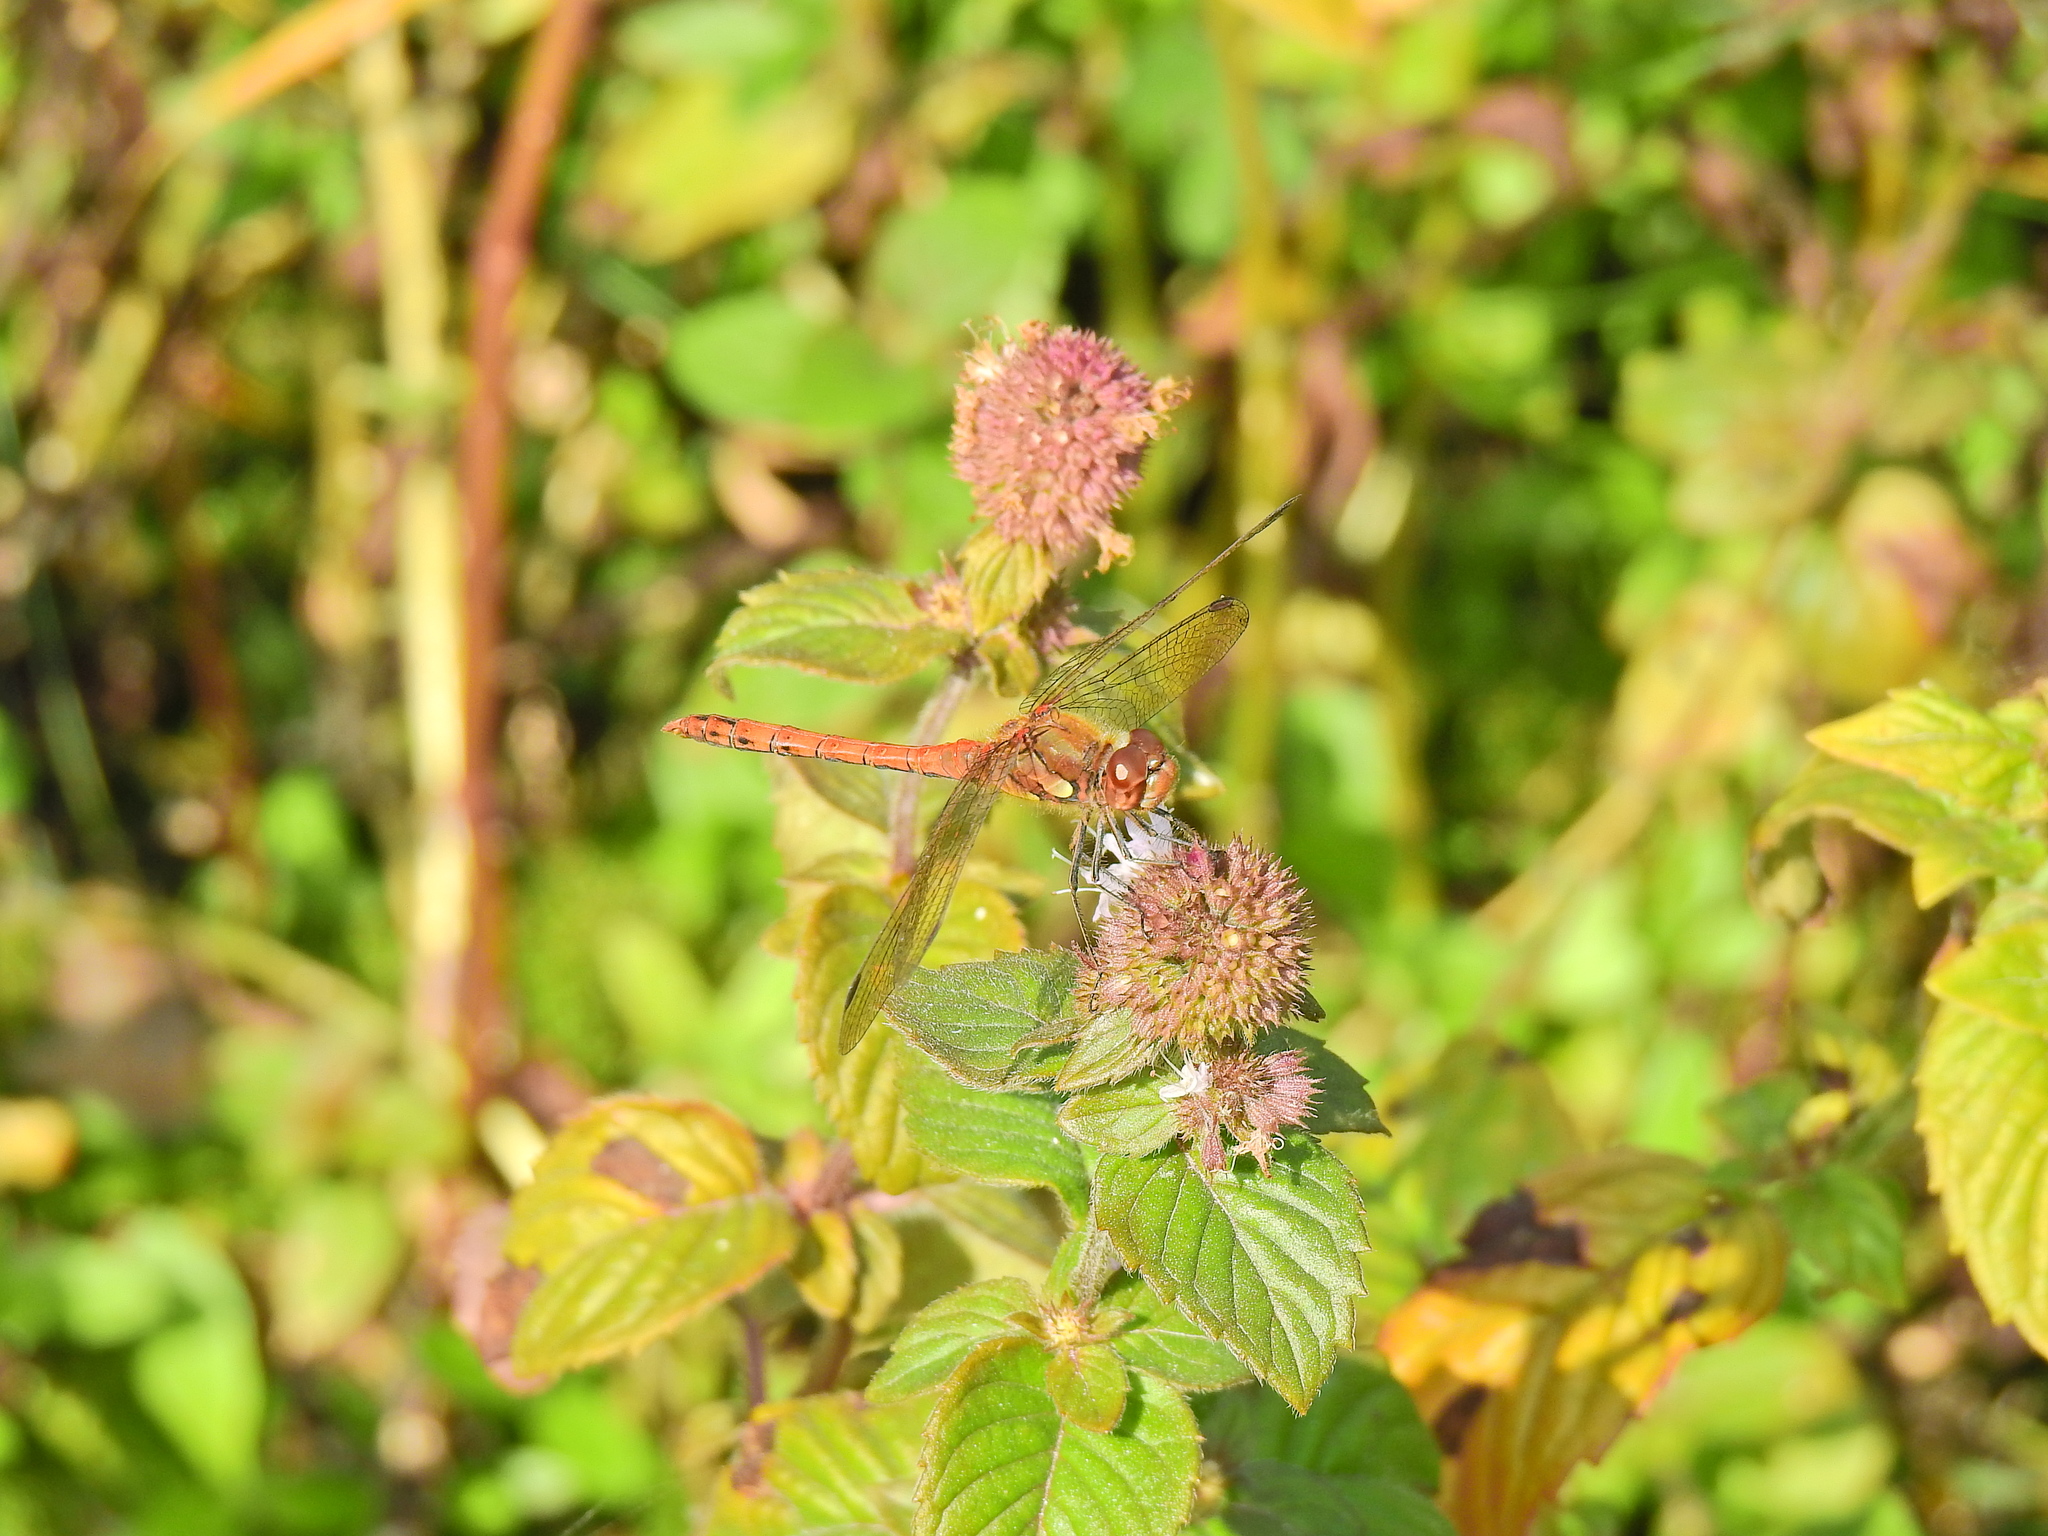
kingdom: Animalia
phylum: Arthropoda
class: Insecta
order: Odonata
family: Libellulidae
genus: Sympetrum
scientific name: Sympetrum striolatum
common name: Common darter
